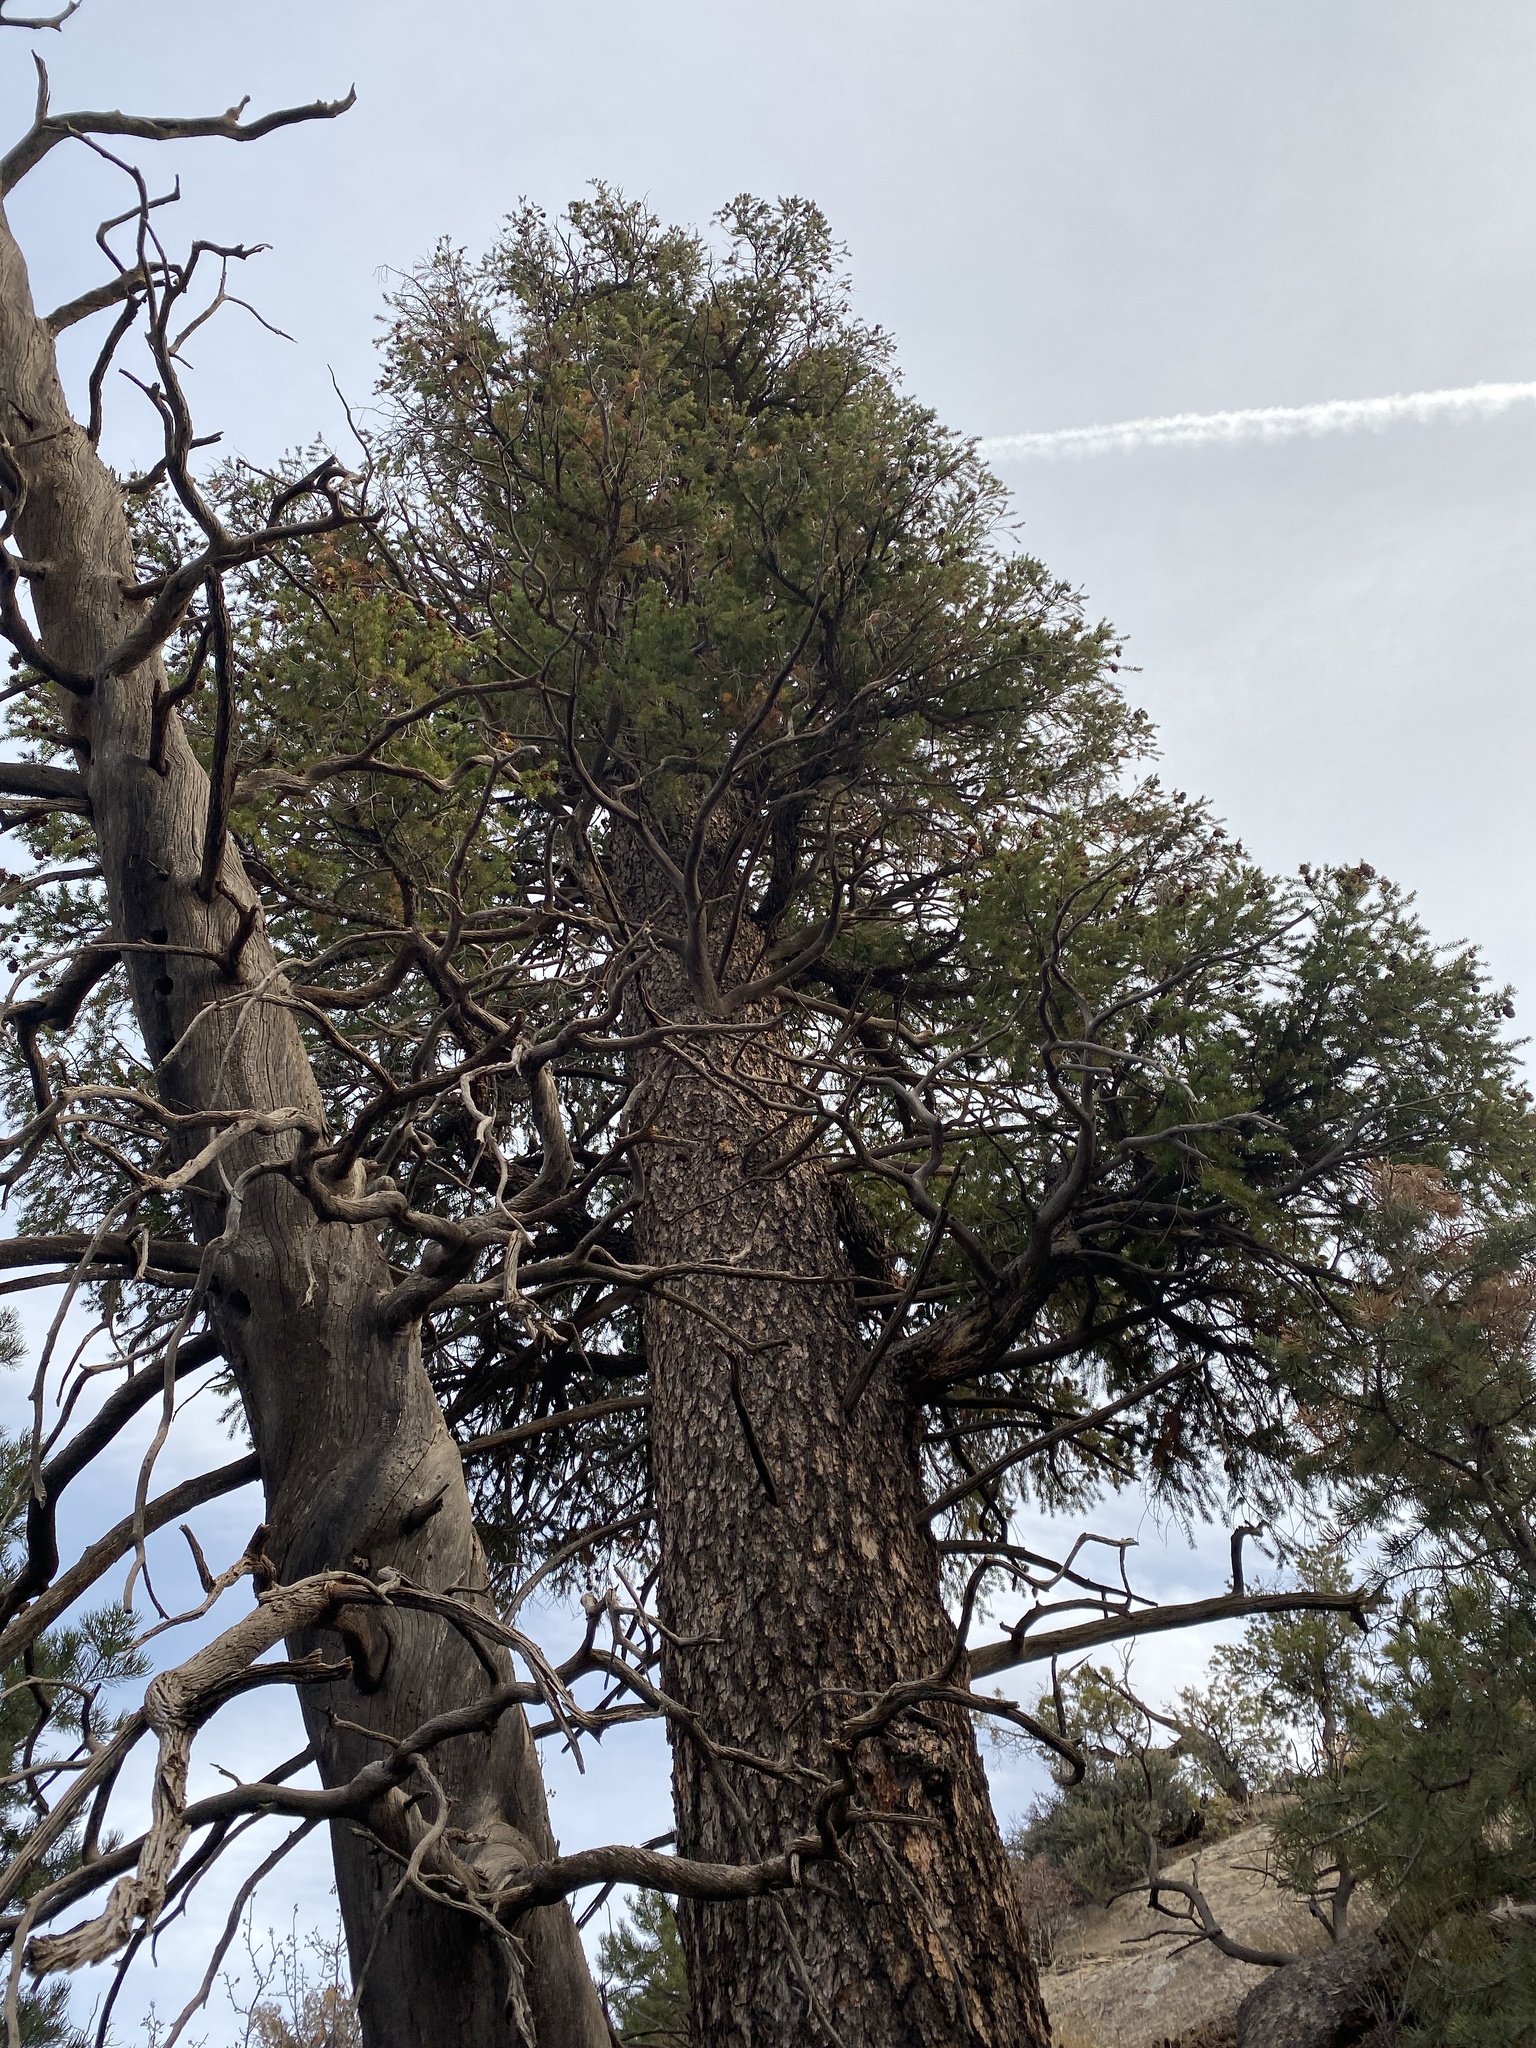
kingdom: Plantae
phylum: Tracheophyta
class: Pinopsida
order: Pinales
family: Pinaceae
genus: Pseudotsuga
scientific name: Pseudotsuga menziesii
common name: Douglas fir
